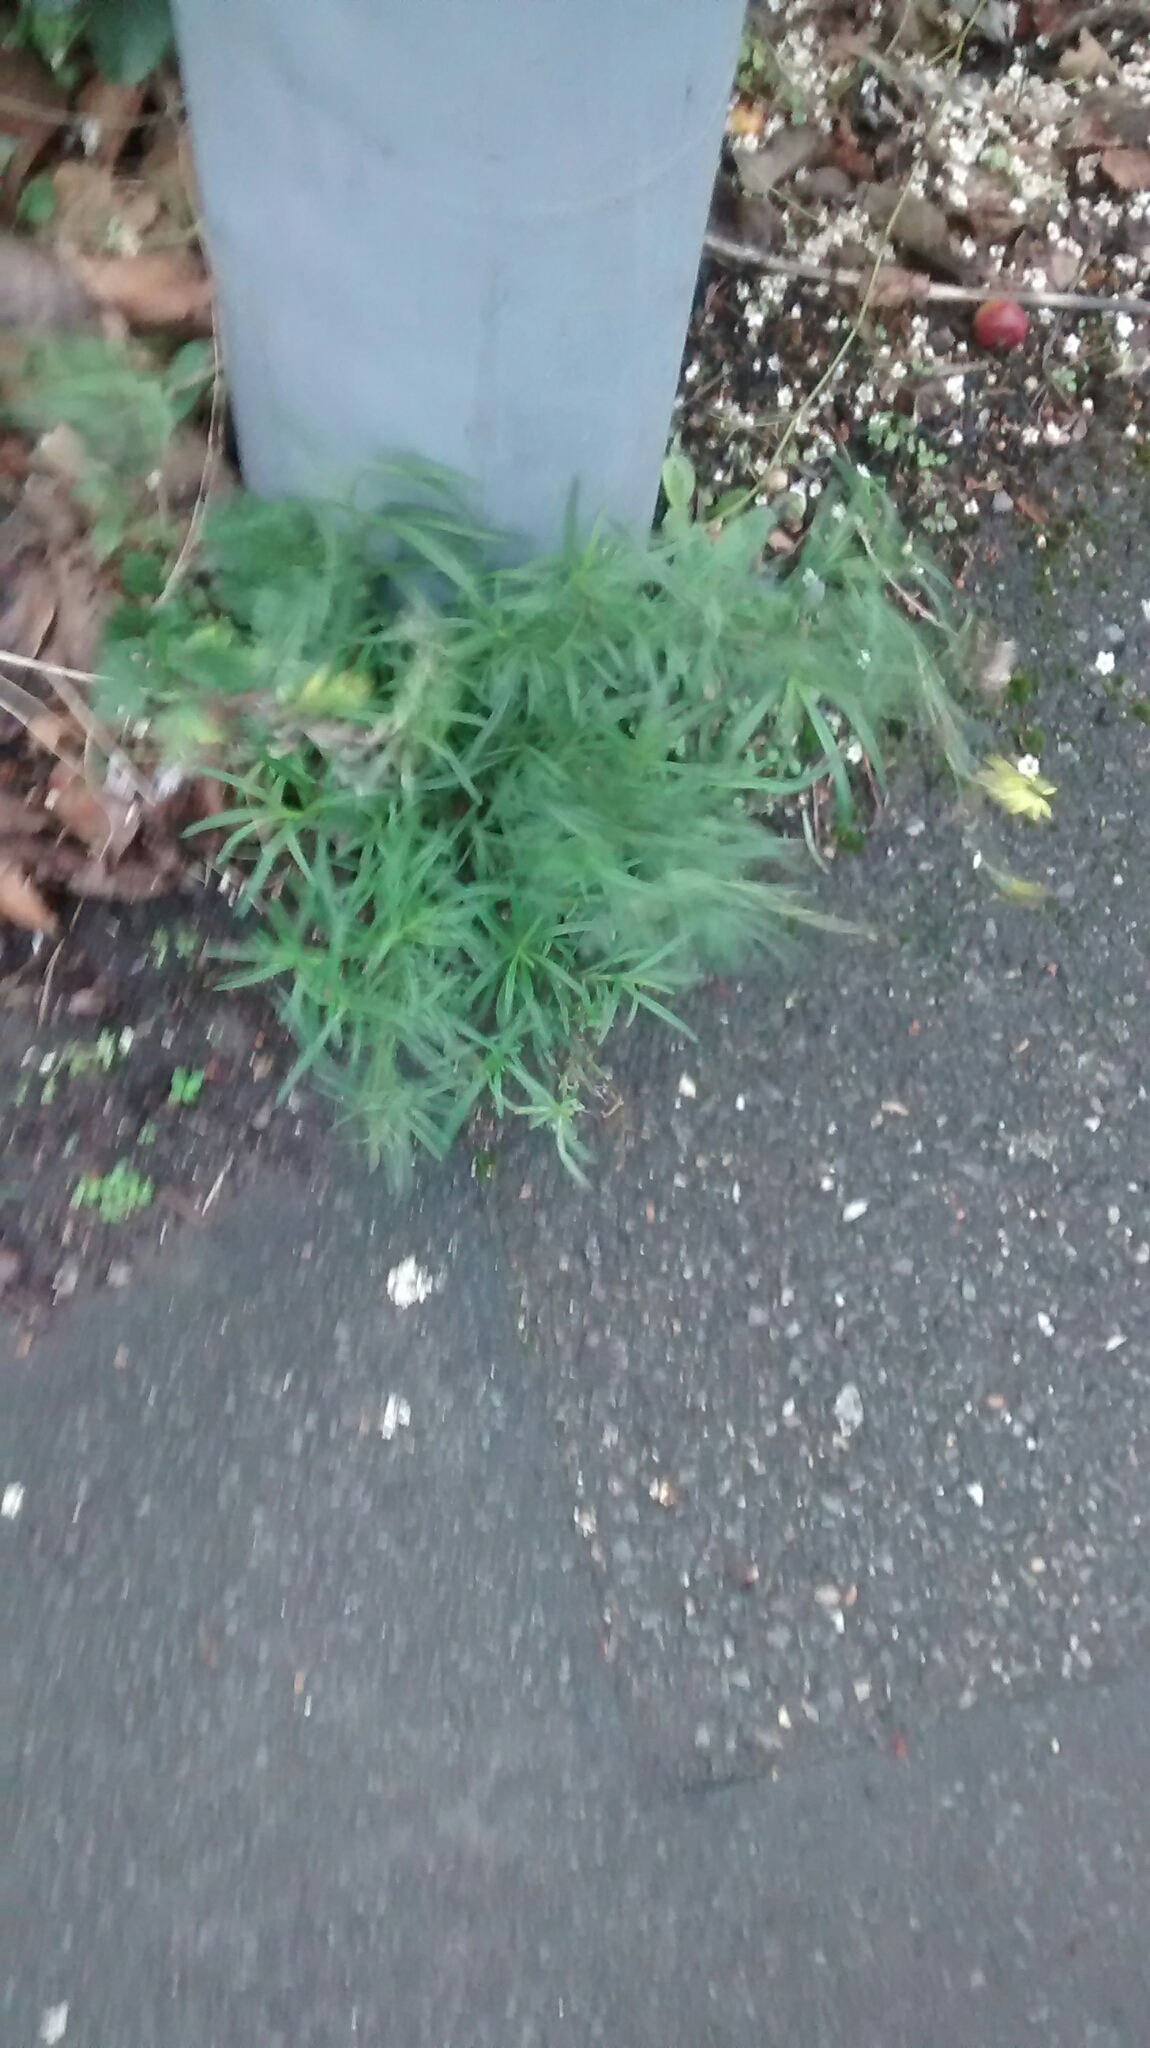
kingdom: Plantae
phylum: Tracheophyta
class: Magnoliopsida
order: Asterales
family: Asteraceae
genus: Senecio
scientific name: Senecio inaequidens
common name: Narrow-leaved ragwort
